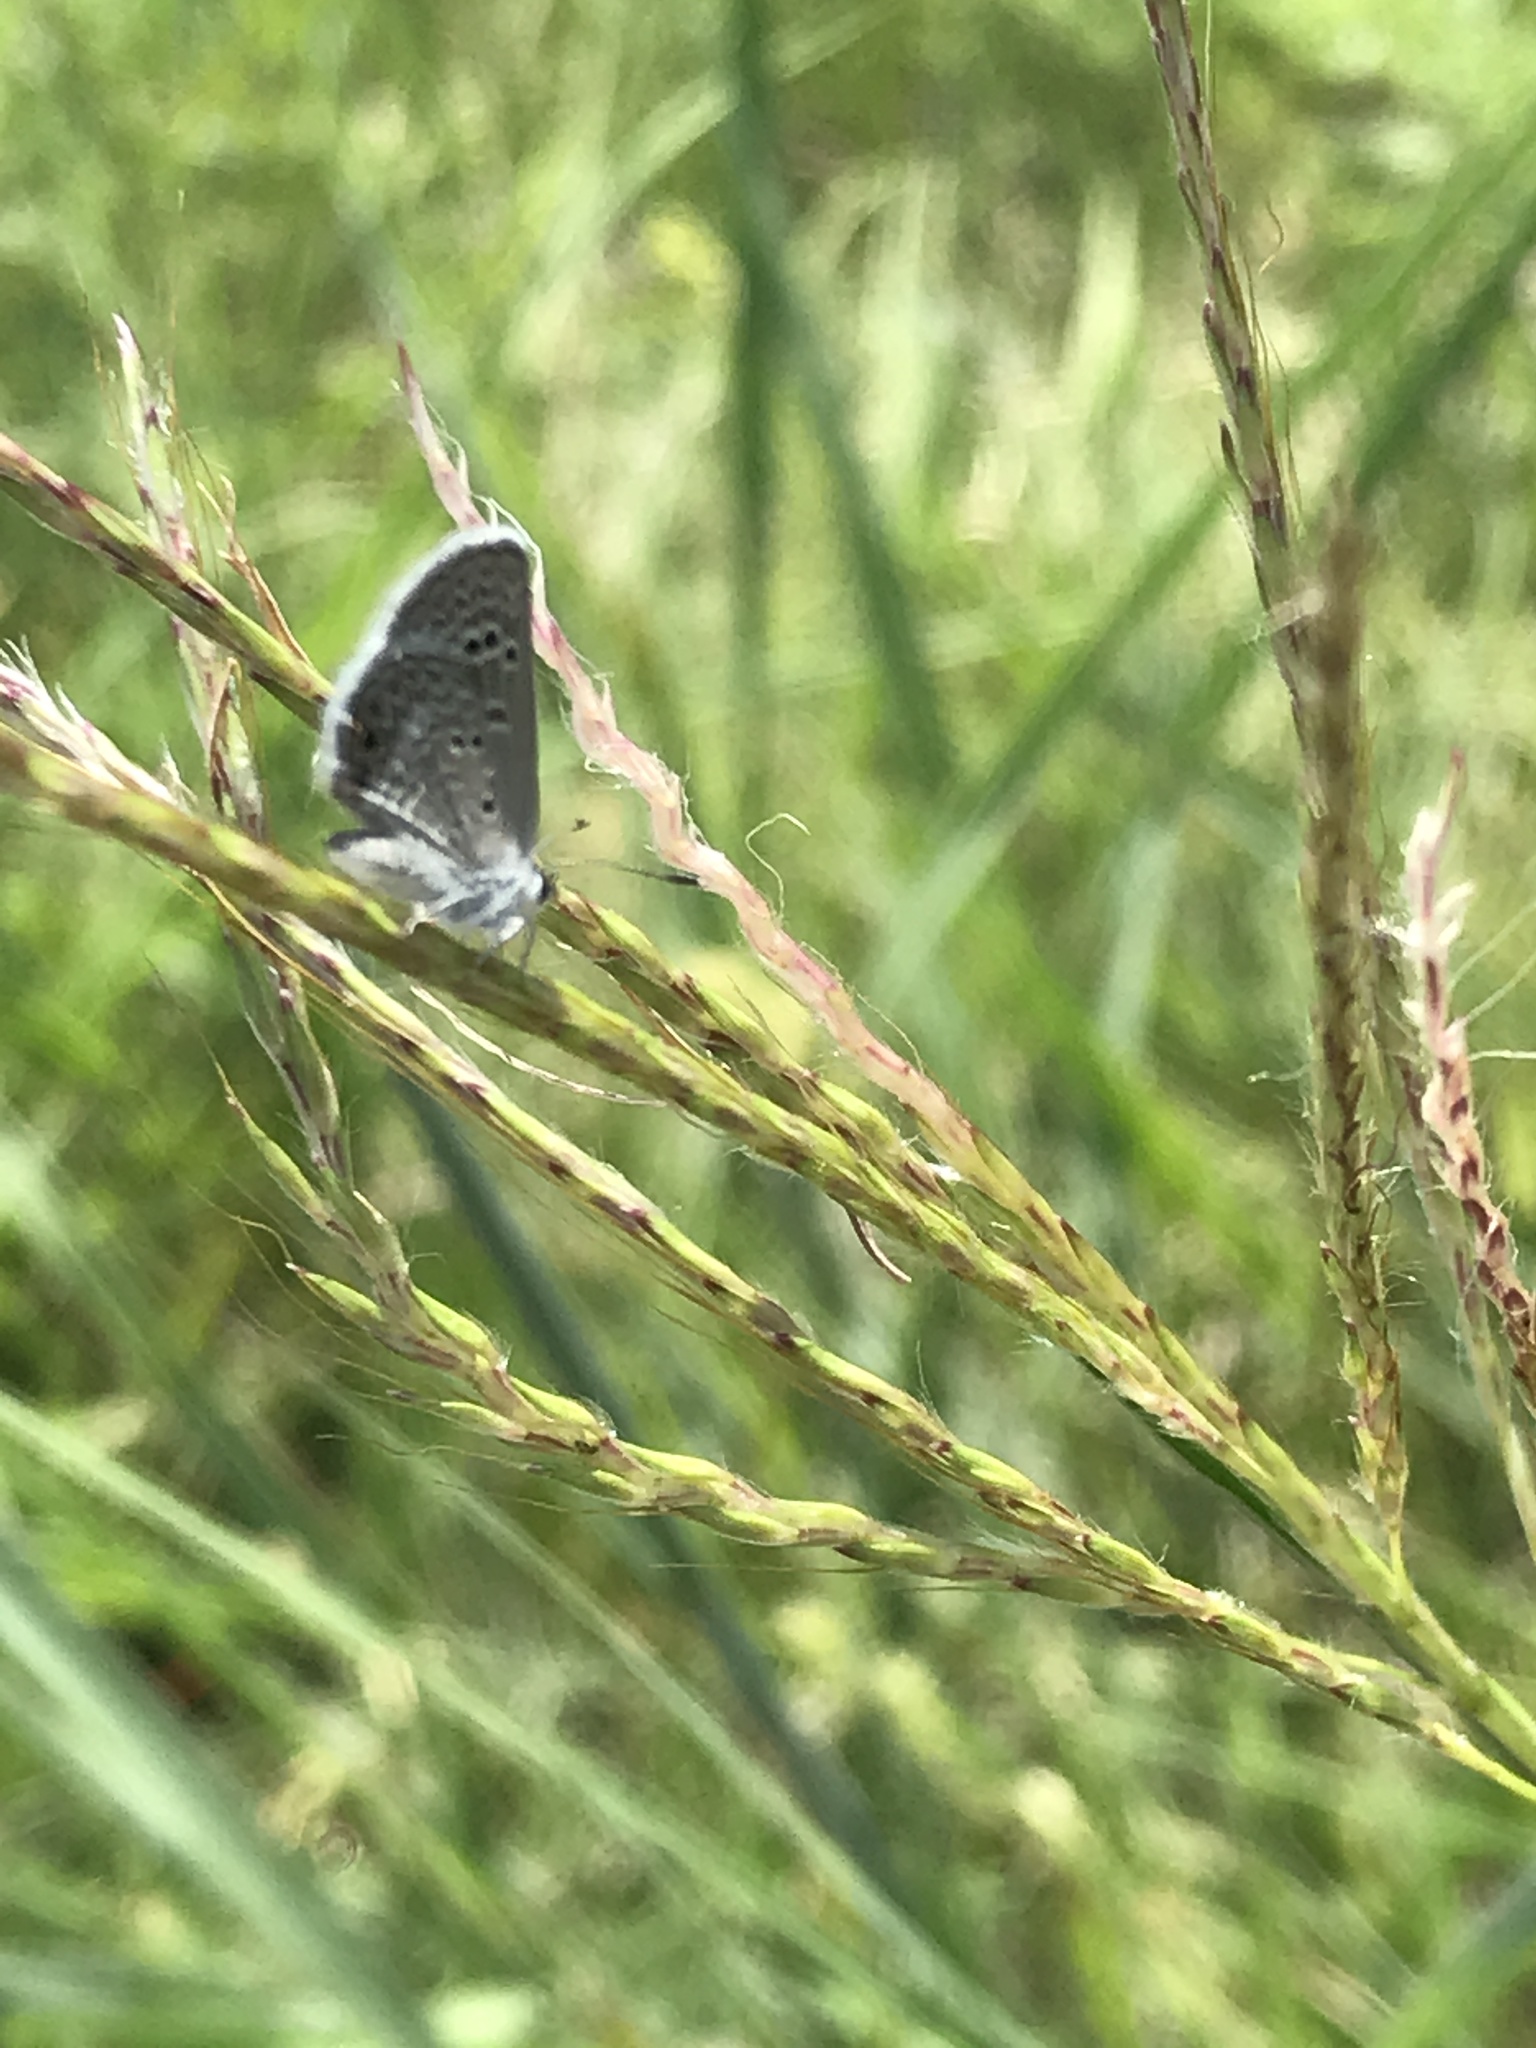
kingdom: Animalia
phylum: Arthropoda
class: Insecta
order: Lepidoptera
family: Lycaenidae
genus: Echinargus
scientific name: Echinargus isola
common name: Reakirt's blue
